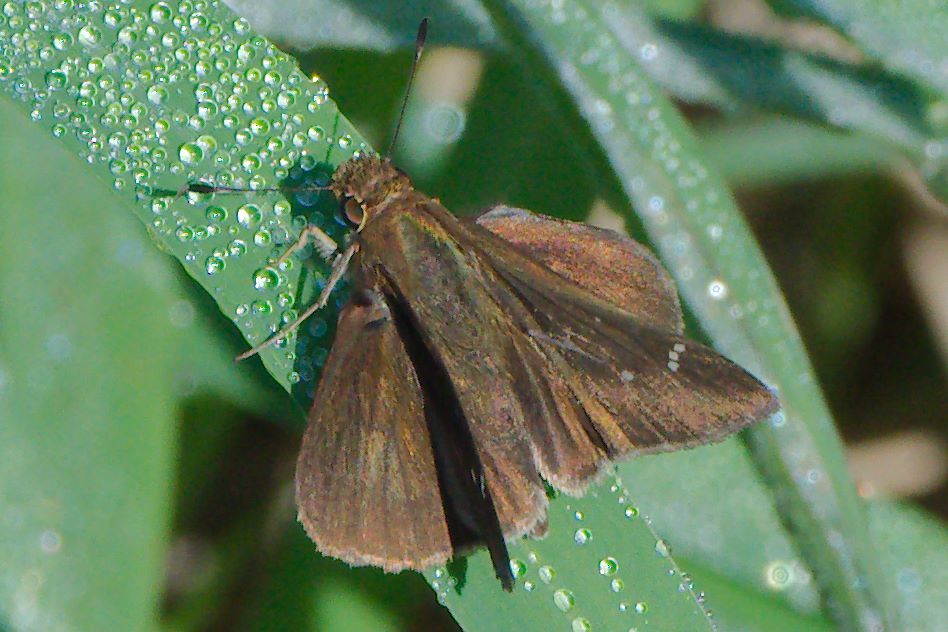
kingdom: Animalia
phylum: Arthropoda
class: Insecta
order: Lepidoptera
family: Hesperiidae
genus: Lerema
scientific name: Lerema accius
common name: Clouded skipper
